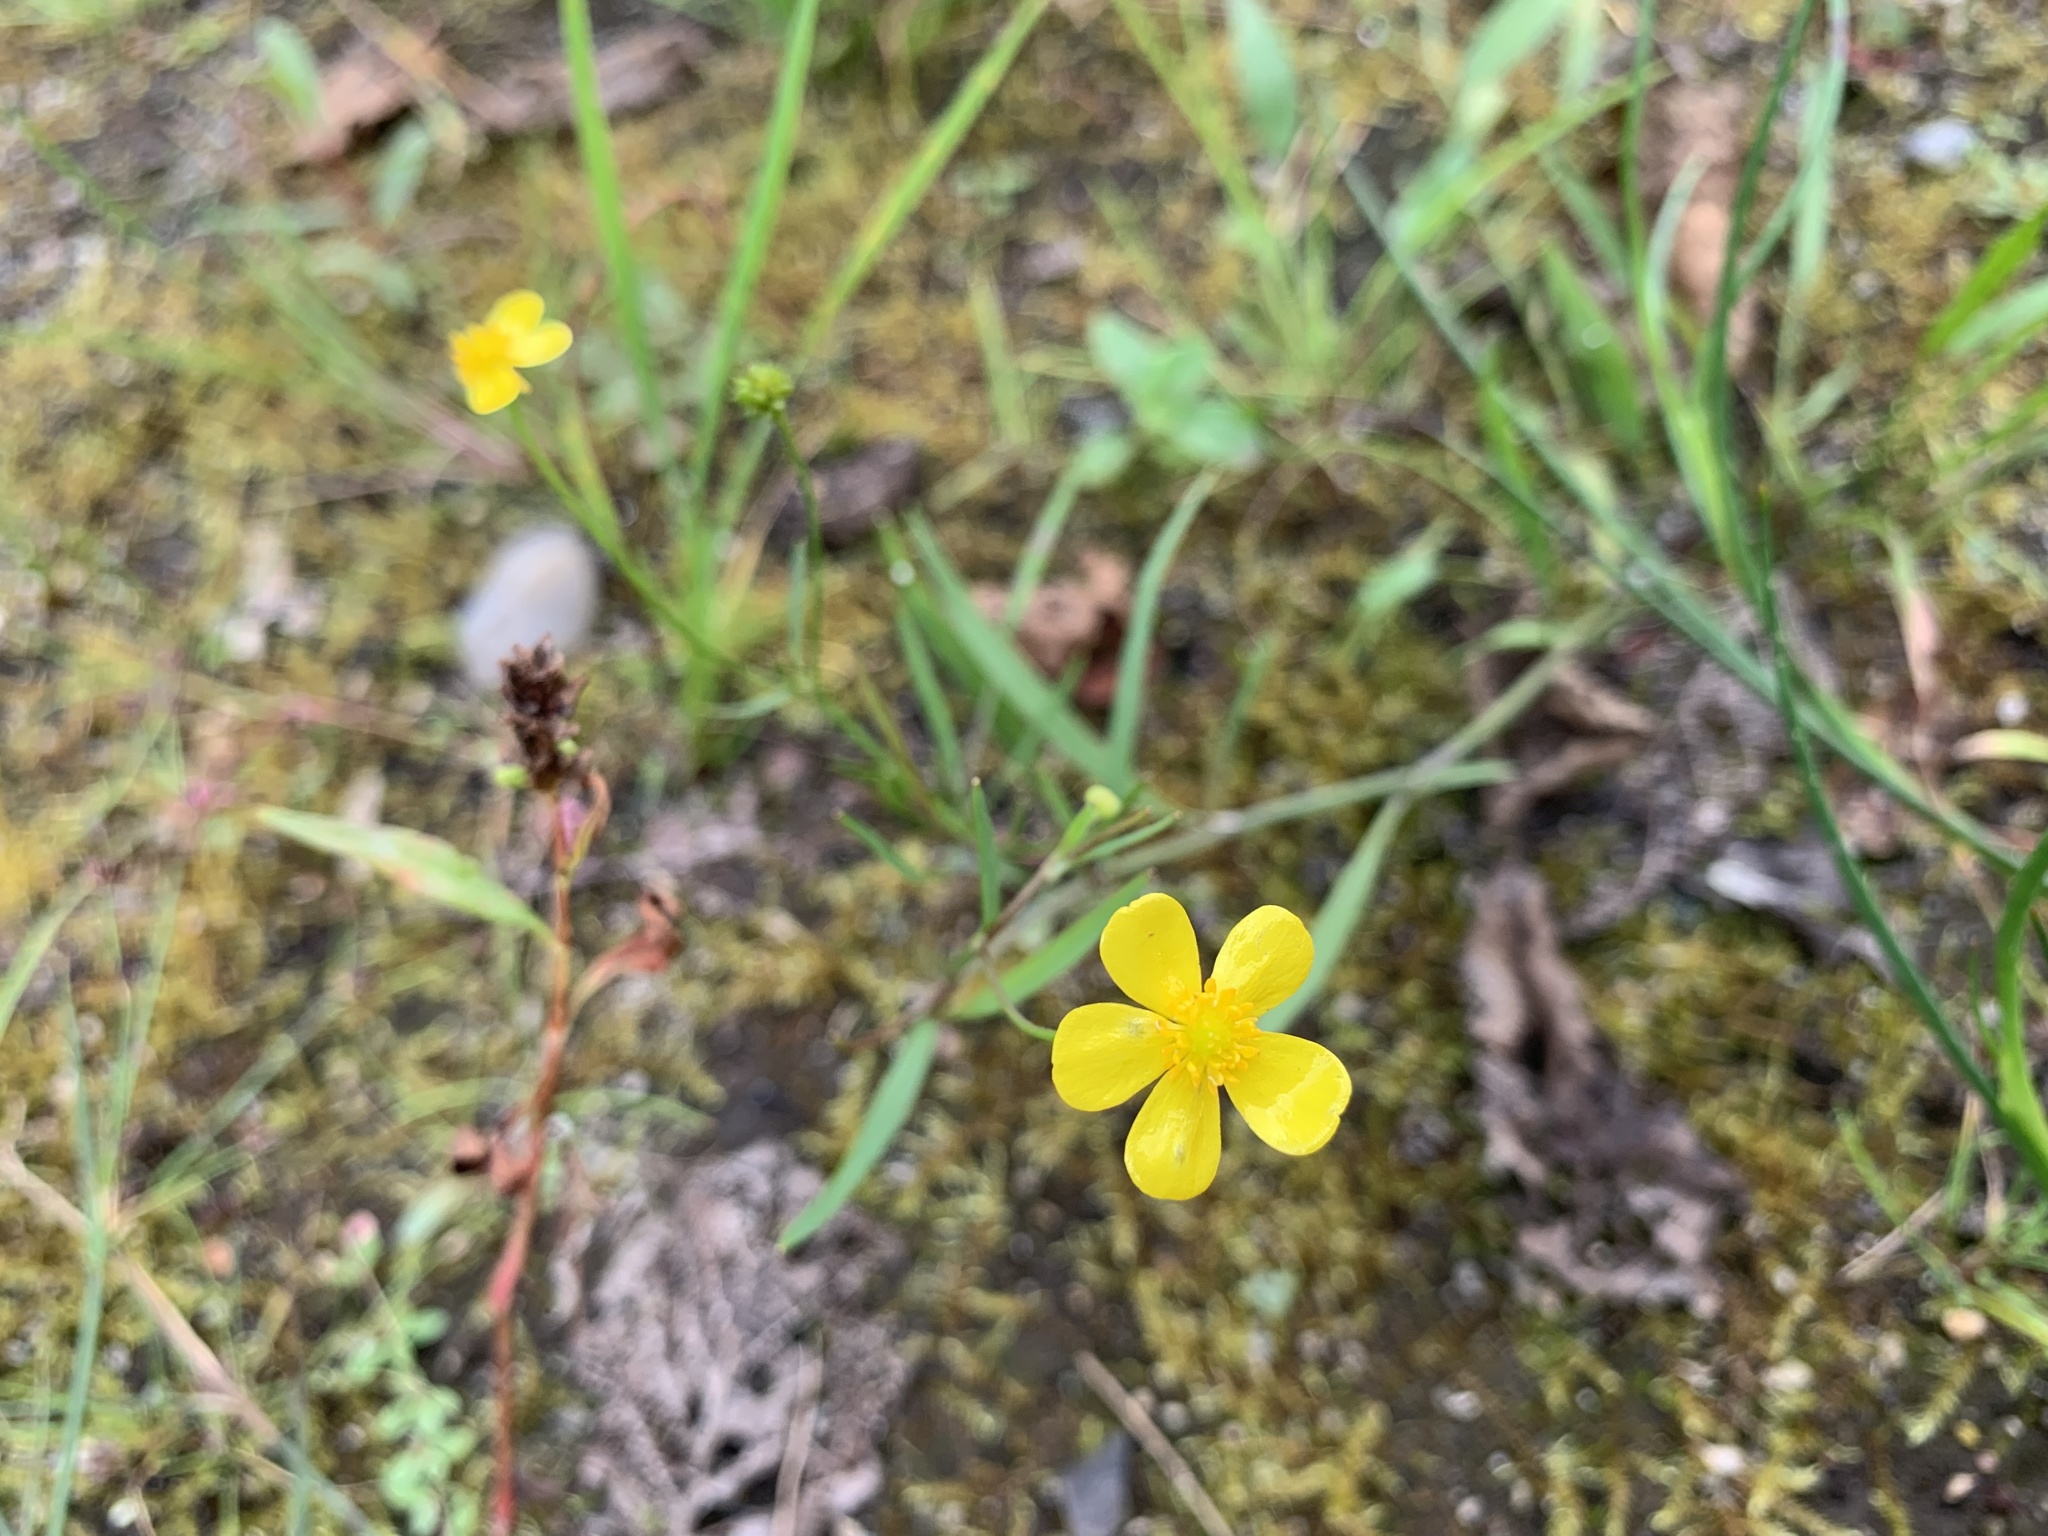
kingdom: Plantae
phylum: Tracheophyta
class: Magnoliopsida
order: Ranunculales
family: Ranunculaceae
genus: Ranunculus
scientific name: Ranunculus flammula
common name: Lesser spearwort
